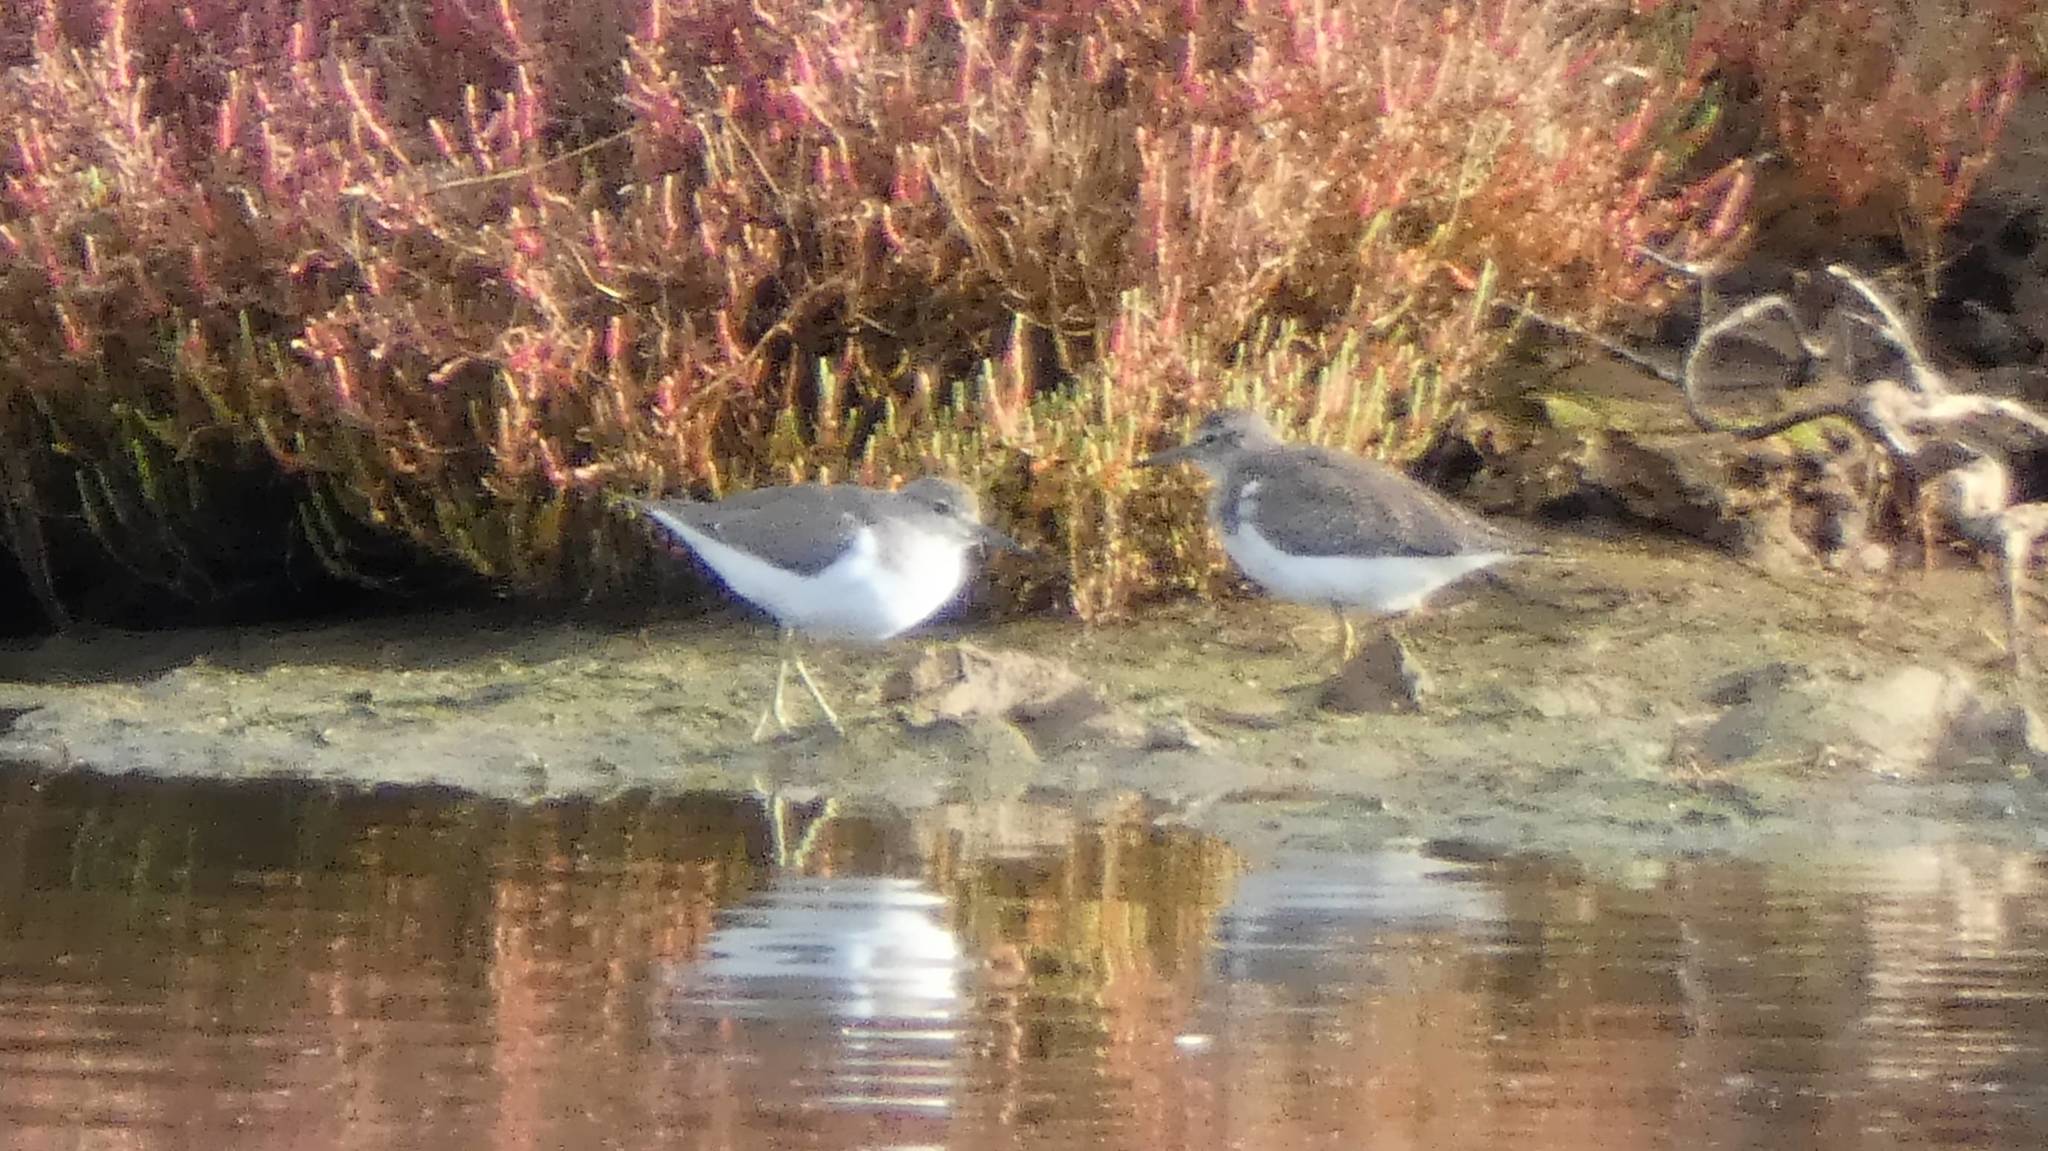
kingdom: Animalia
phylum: Chordata
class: Aves
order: Charadriiformes
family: Scolopacidae
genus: Actitis
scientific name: Actitis hypoleucos
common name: Common sandpiper
